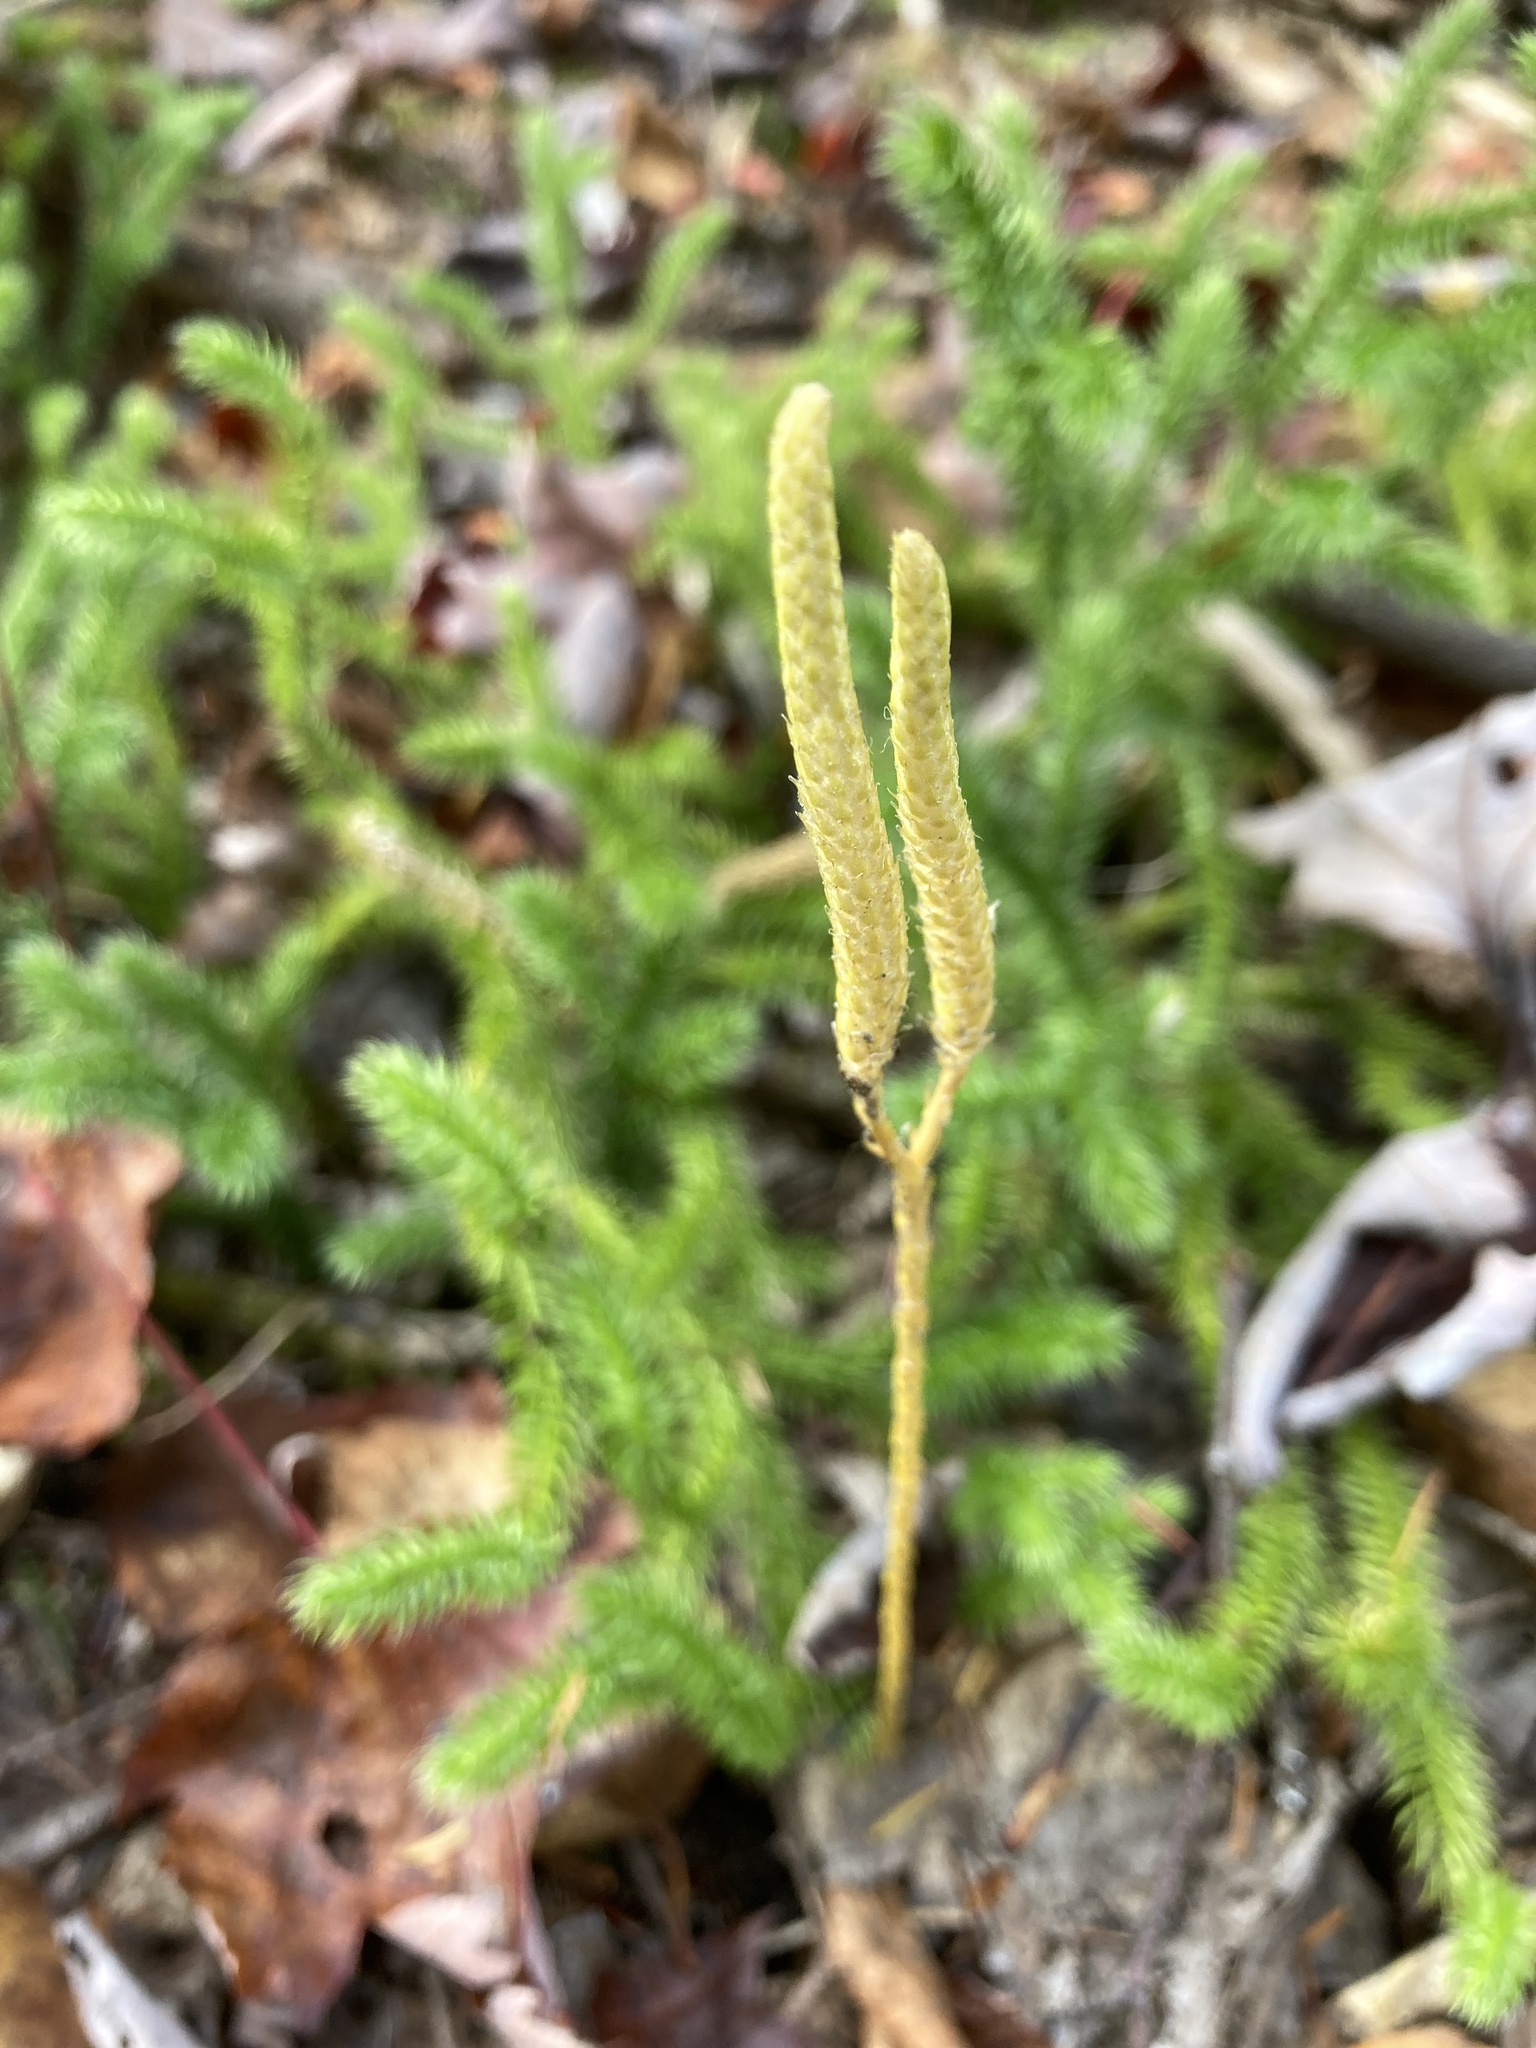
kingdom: Plantae
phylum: Tracheophyta
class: Lycopodiopsida
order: Lycopodiales
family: Lycopodiaceae
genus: Lycopodium
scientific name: Lycopodium clavatum
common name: Stag's-horn clubmoss
